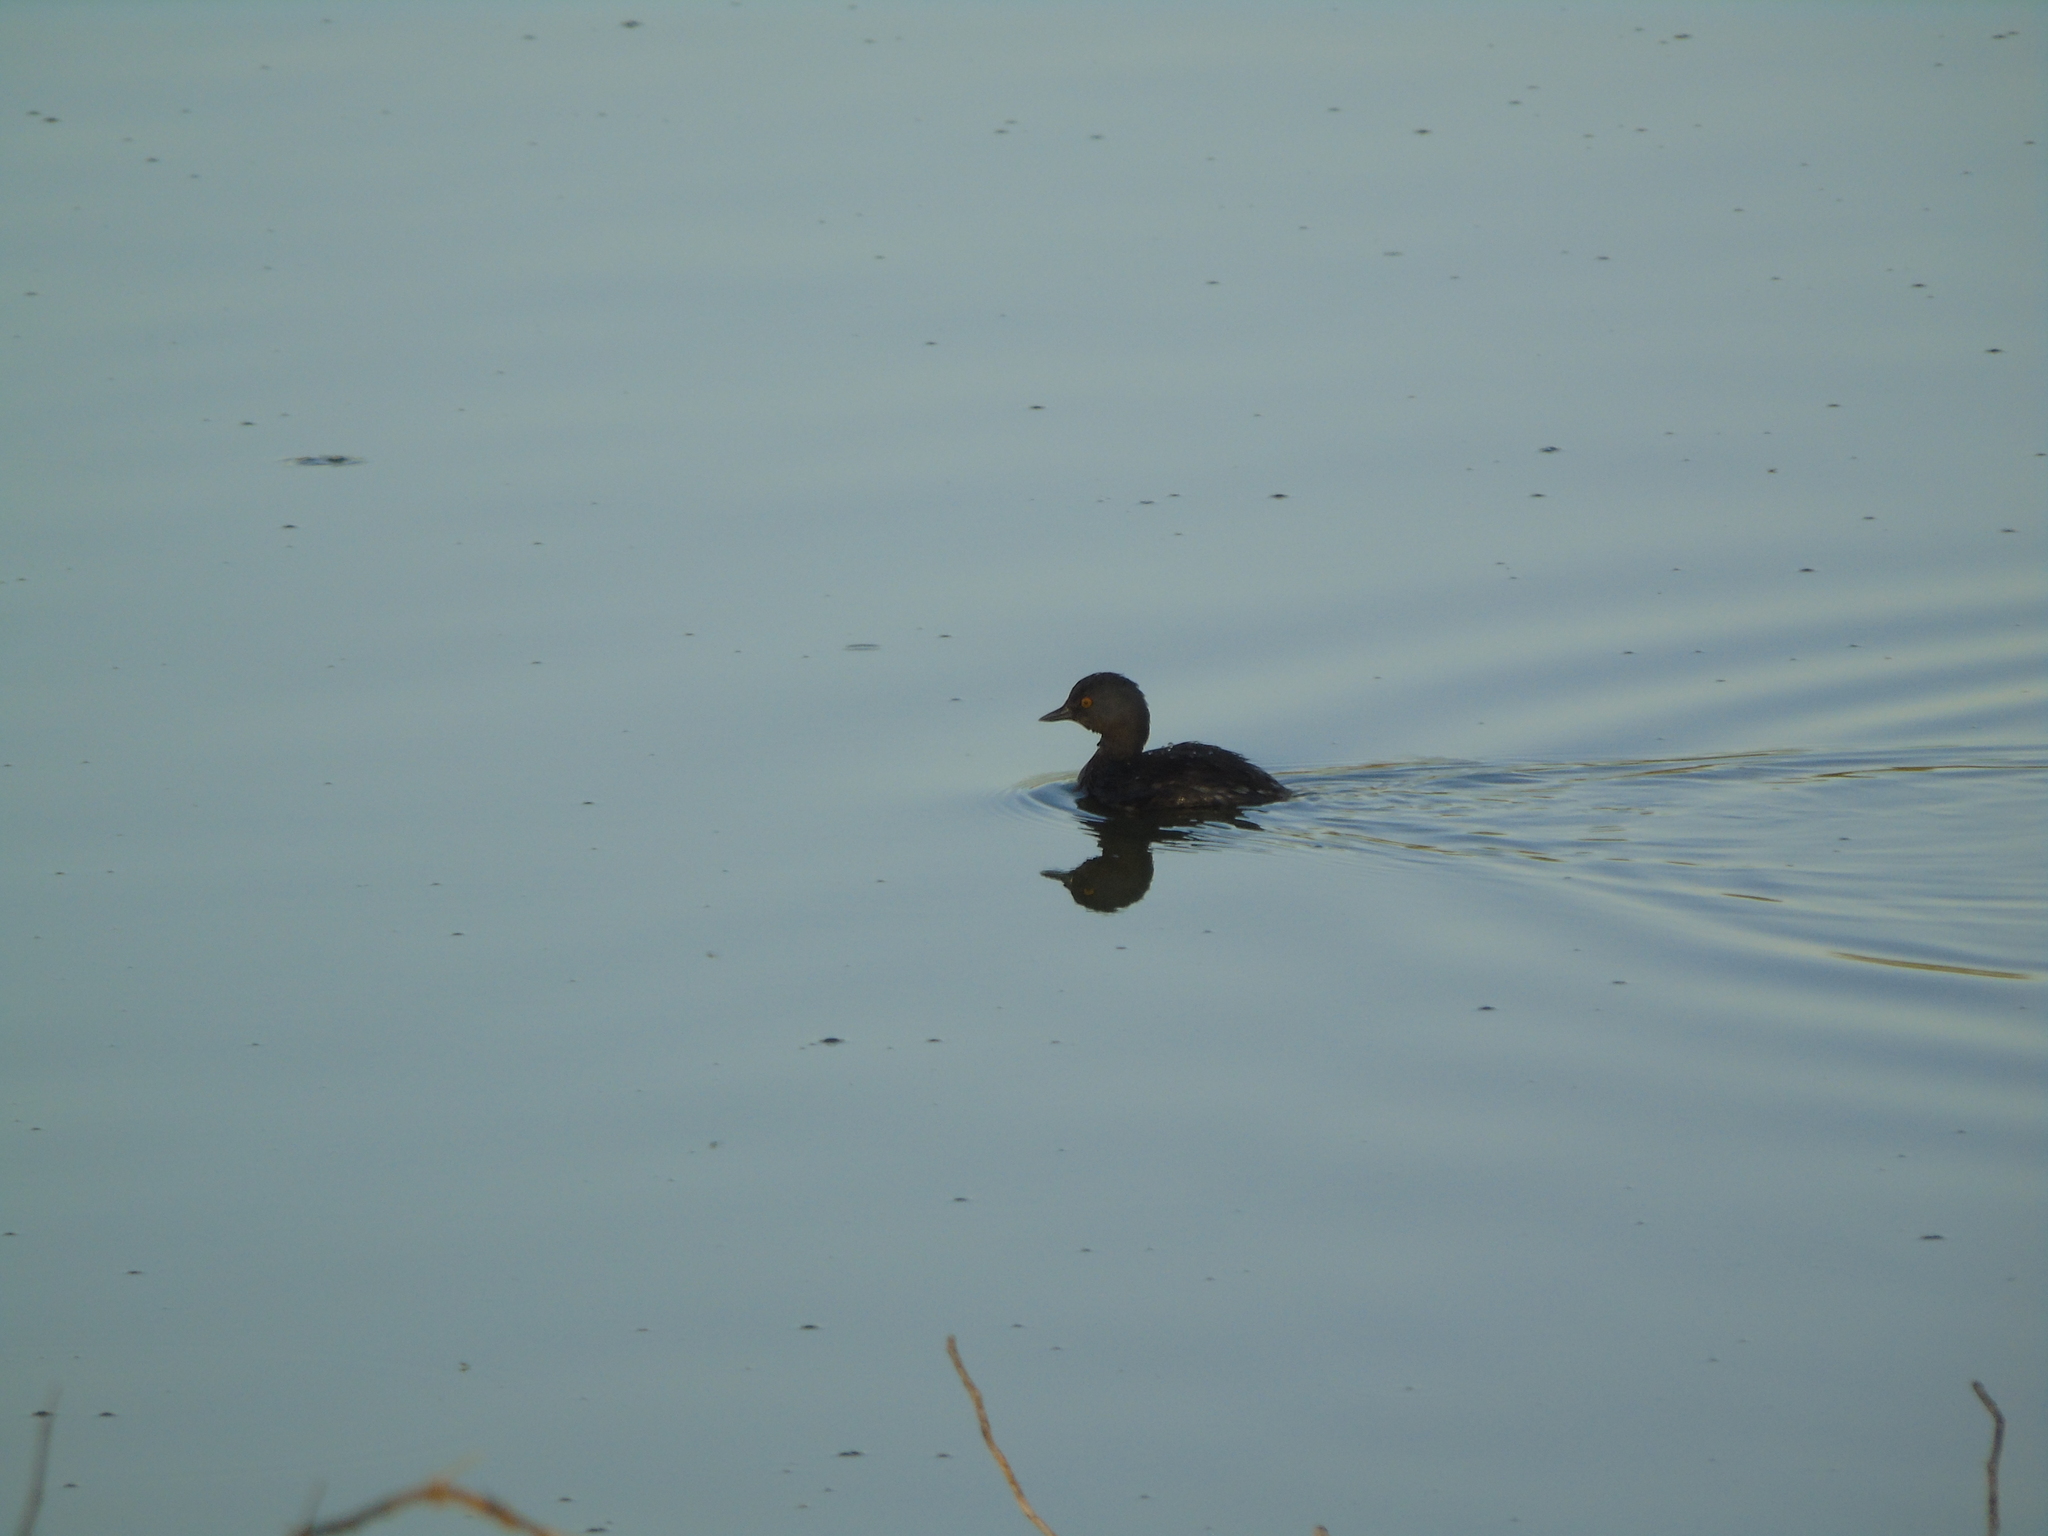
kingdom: Animalia
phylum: Chordata
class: Aves
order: Podicipediformes
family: Podicipedidae
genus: Tachybaptus
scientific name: Tachybaptus dominicus
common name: Least grebe
